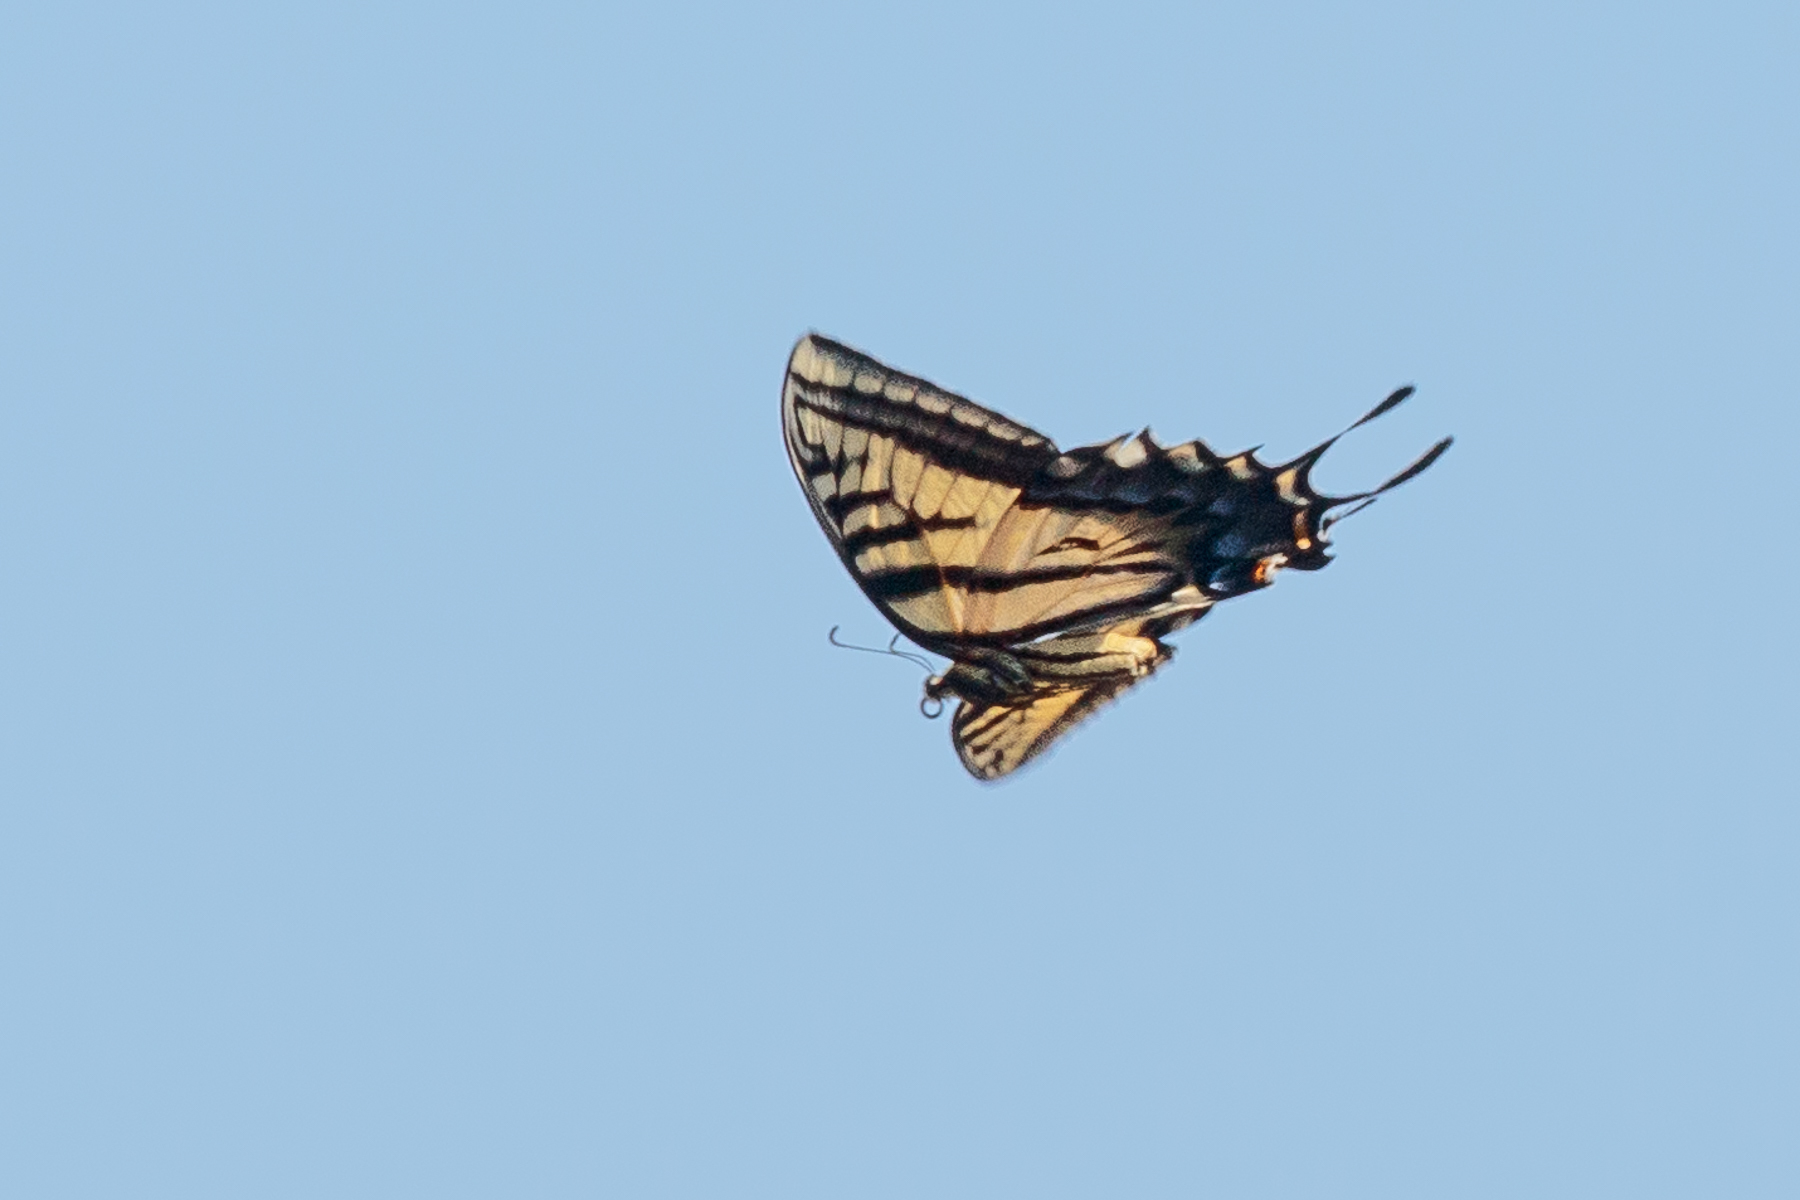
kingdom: Animalia
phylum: Arthropoda
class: Insecta
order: Lepidoptera
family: Papilionidae
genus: Papilio
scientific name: Papilio multicaudata
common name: Two-tailed tiger swallowtail
